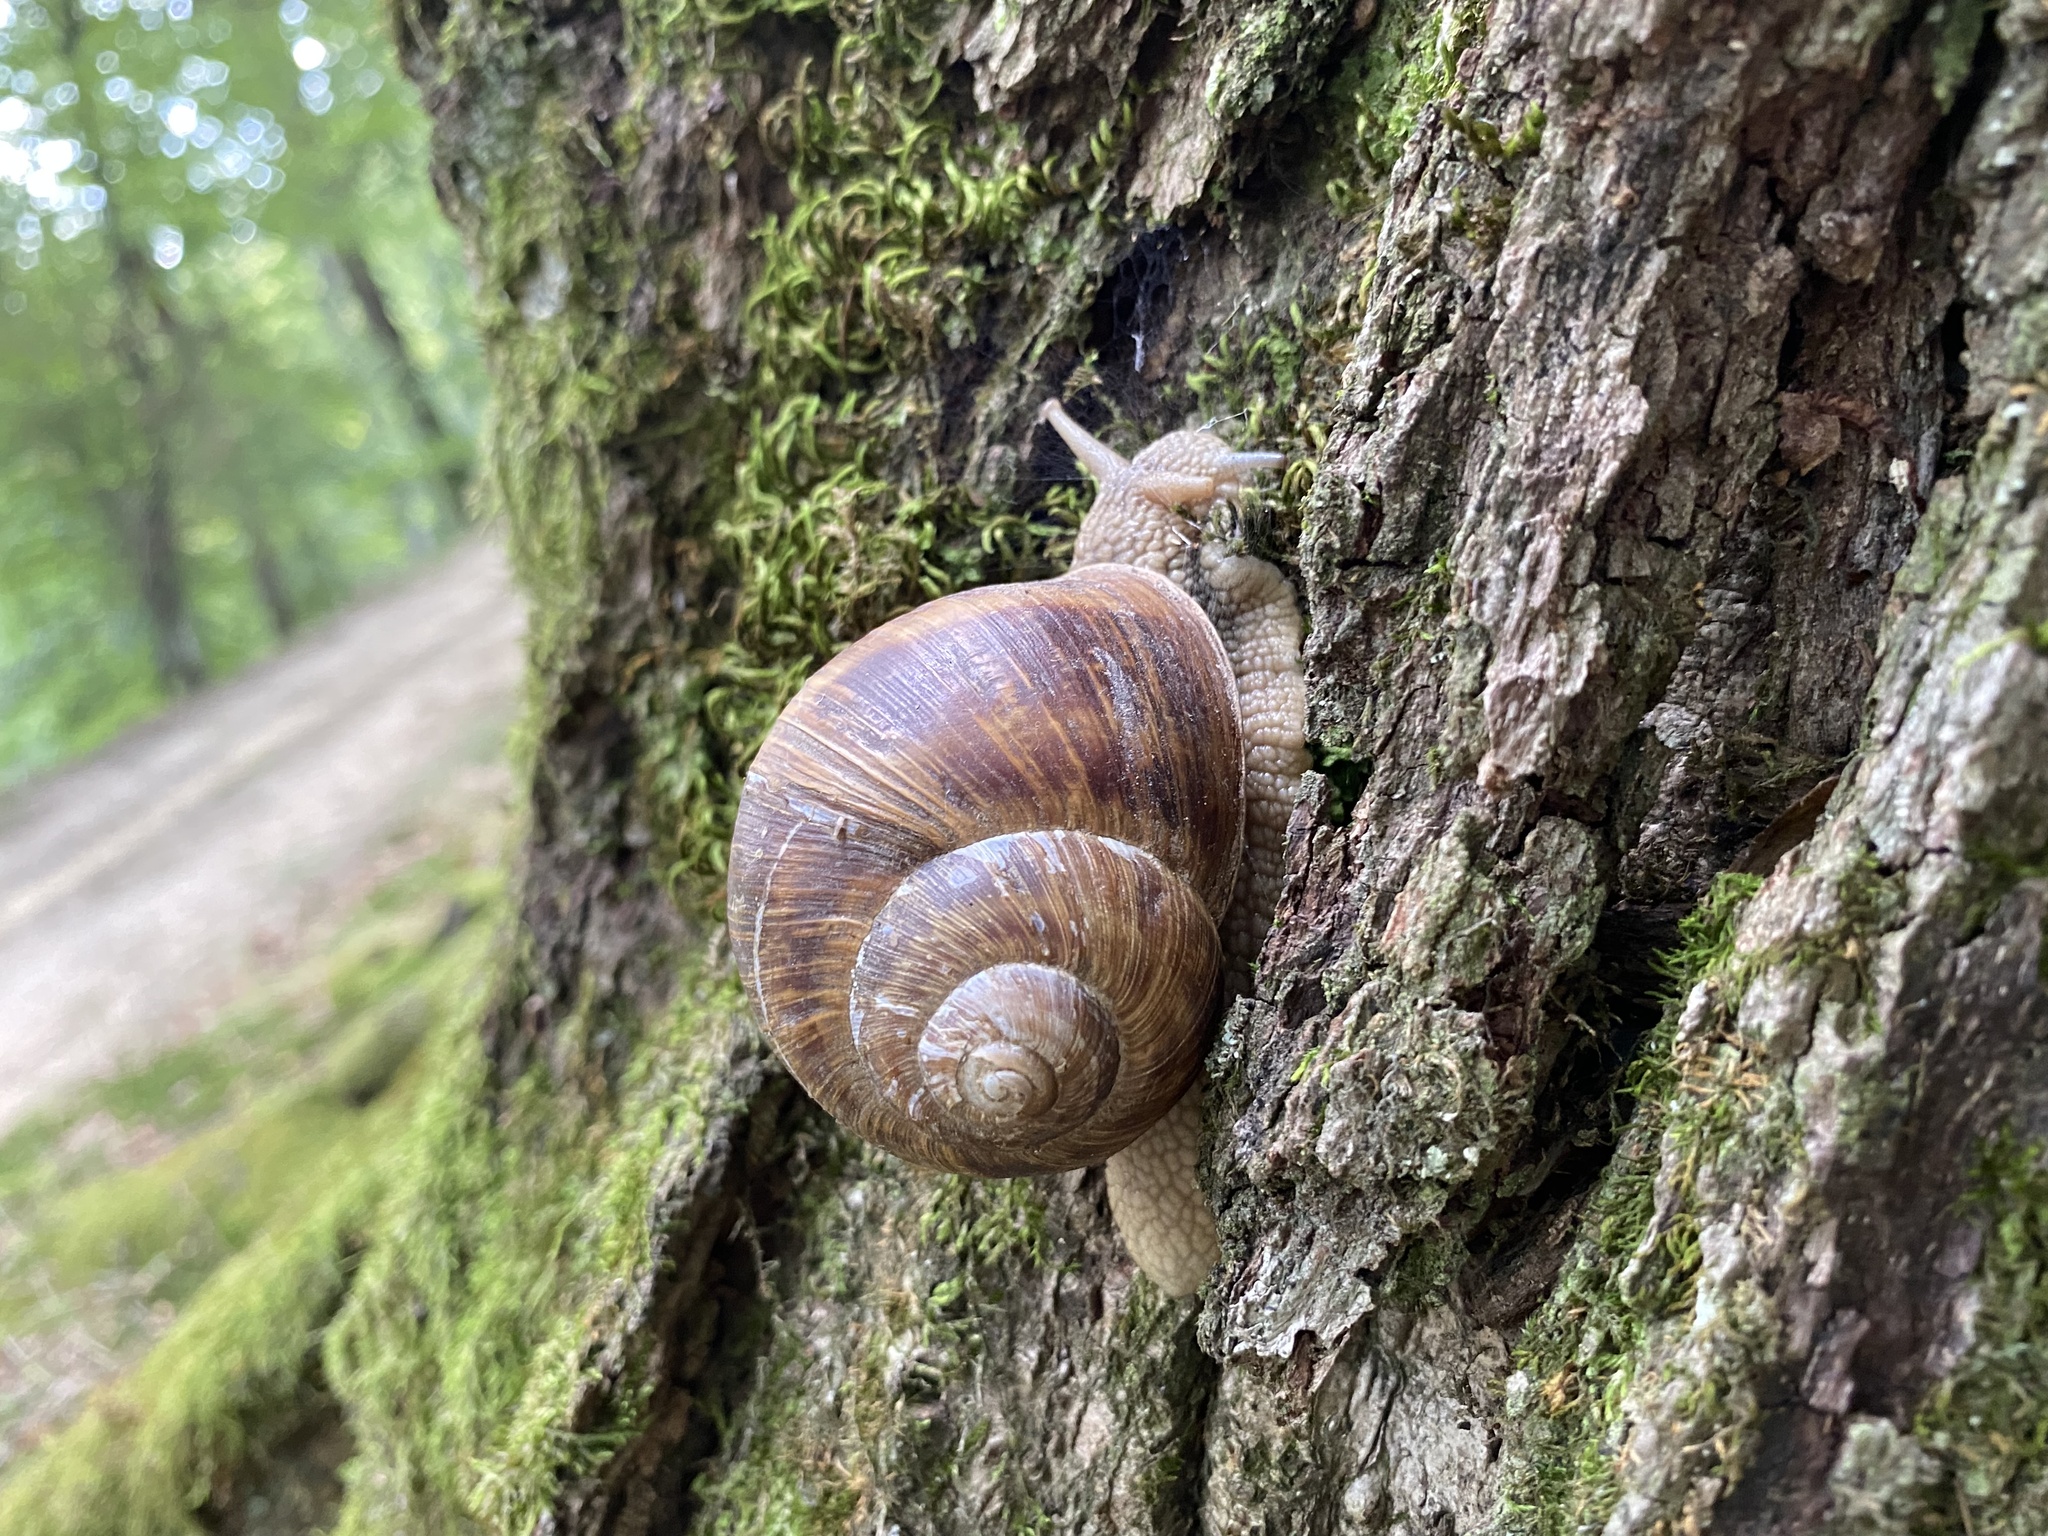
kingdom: Animalia
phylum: Mollusca
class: Gastropoda
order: Stylommatophora
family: Helicidae
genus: Helix
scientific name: Helix pomatia
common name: Roman snail
